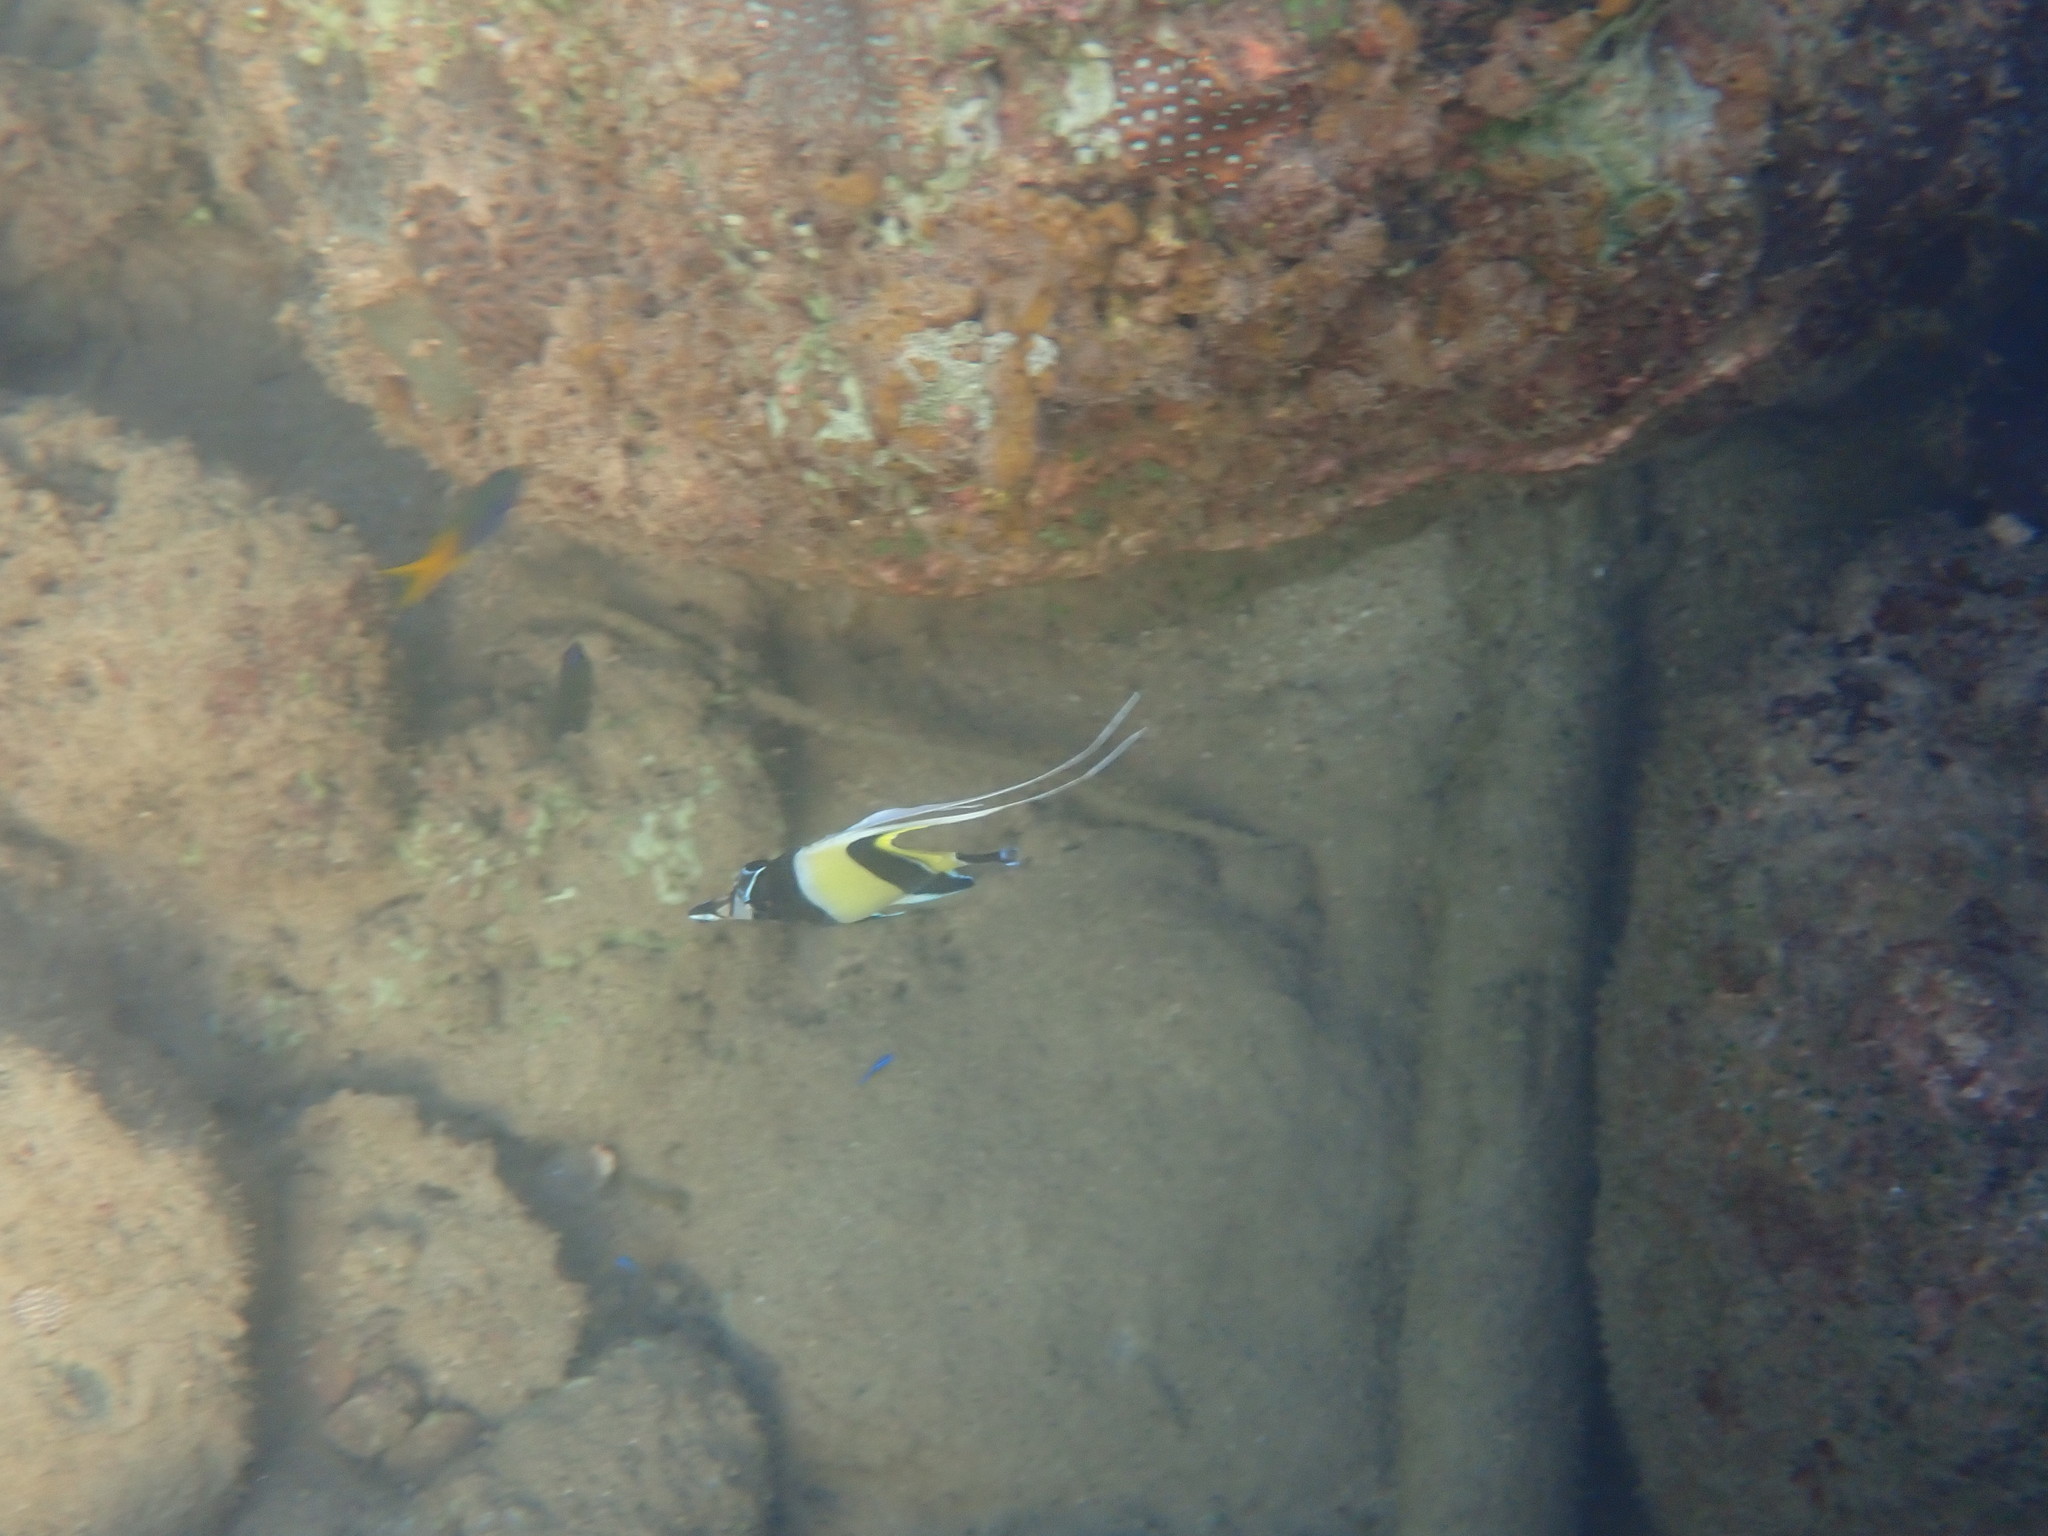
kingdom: Animalia
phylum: Chordata
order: Perciformes
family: Zanclidae
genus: Zanclus
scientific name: Zanclus cornutus
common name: Moorish idol
